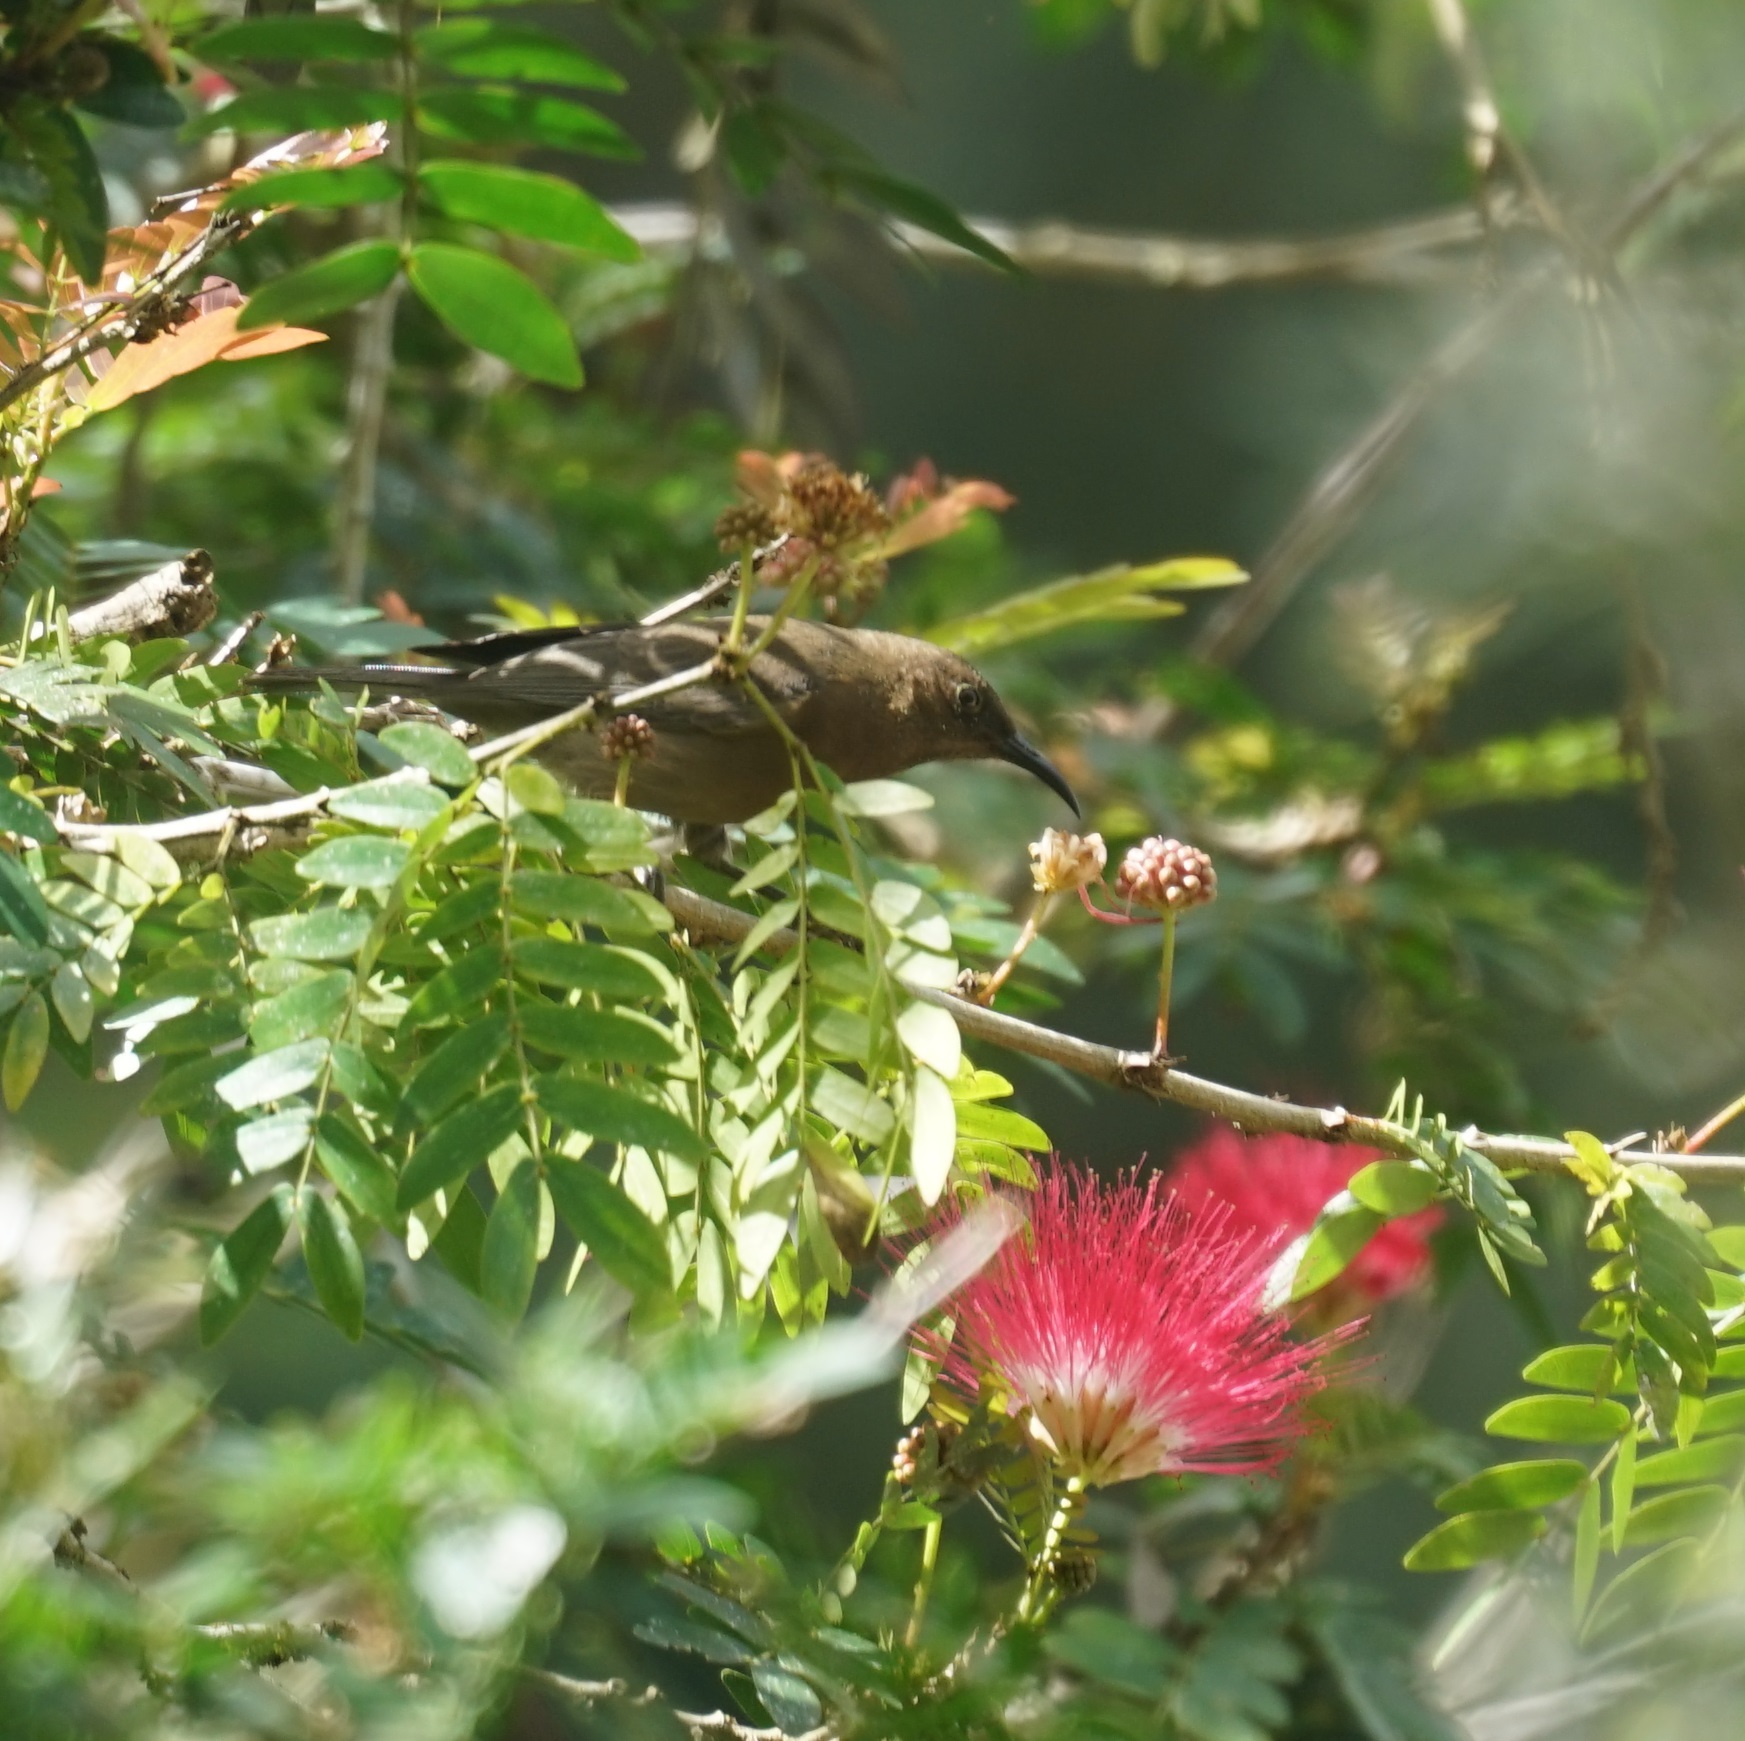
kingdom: Animalia
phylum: Chordata
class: Aves
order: Passeriformes
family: Meliphagidae
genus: Myzomela
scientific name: Myzomela obscura
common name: Dusky myzomela
